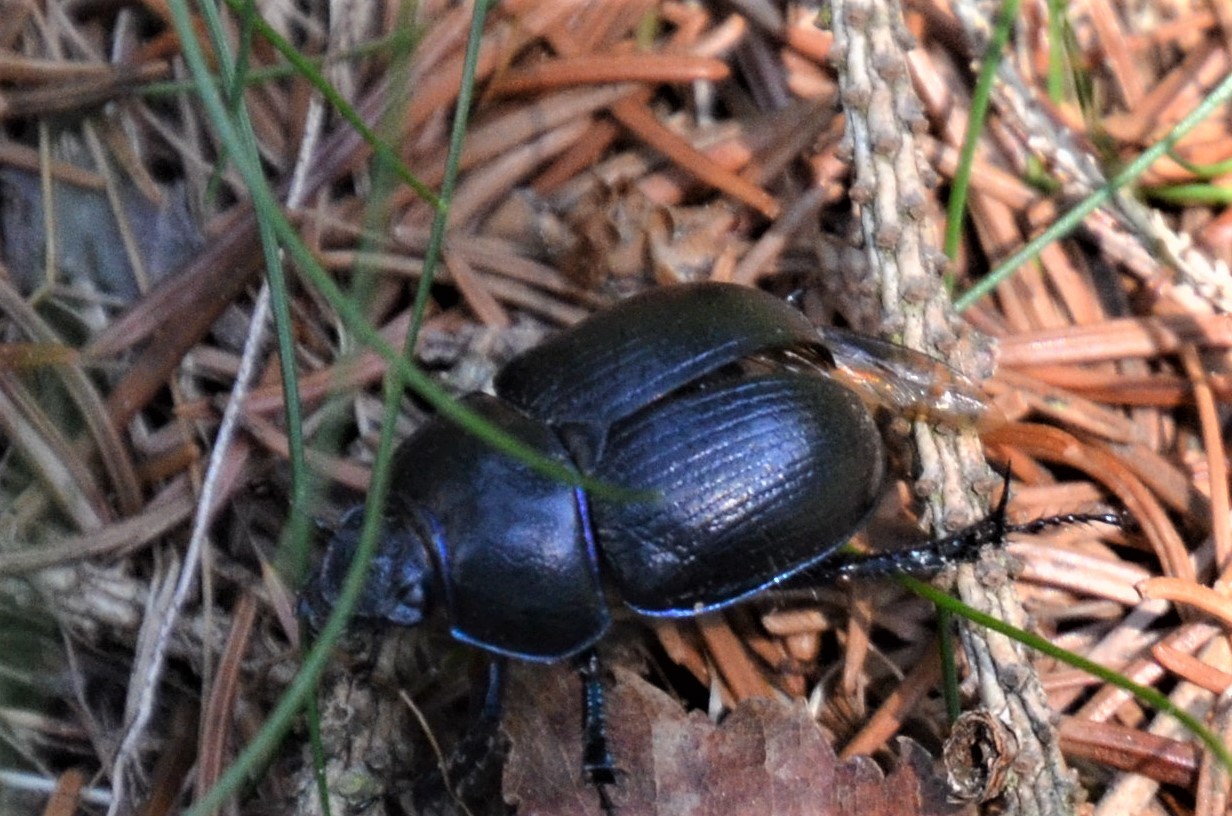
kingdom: Animalia
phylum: Arthropoda
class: Insecta
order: Coleoptera
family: Geotrupidae
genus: Anoplotrupes
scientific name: Anoplotrupes stercorosus
